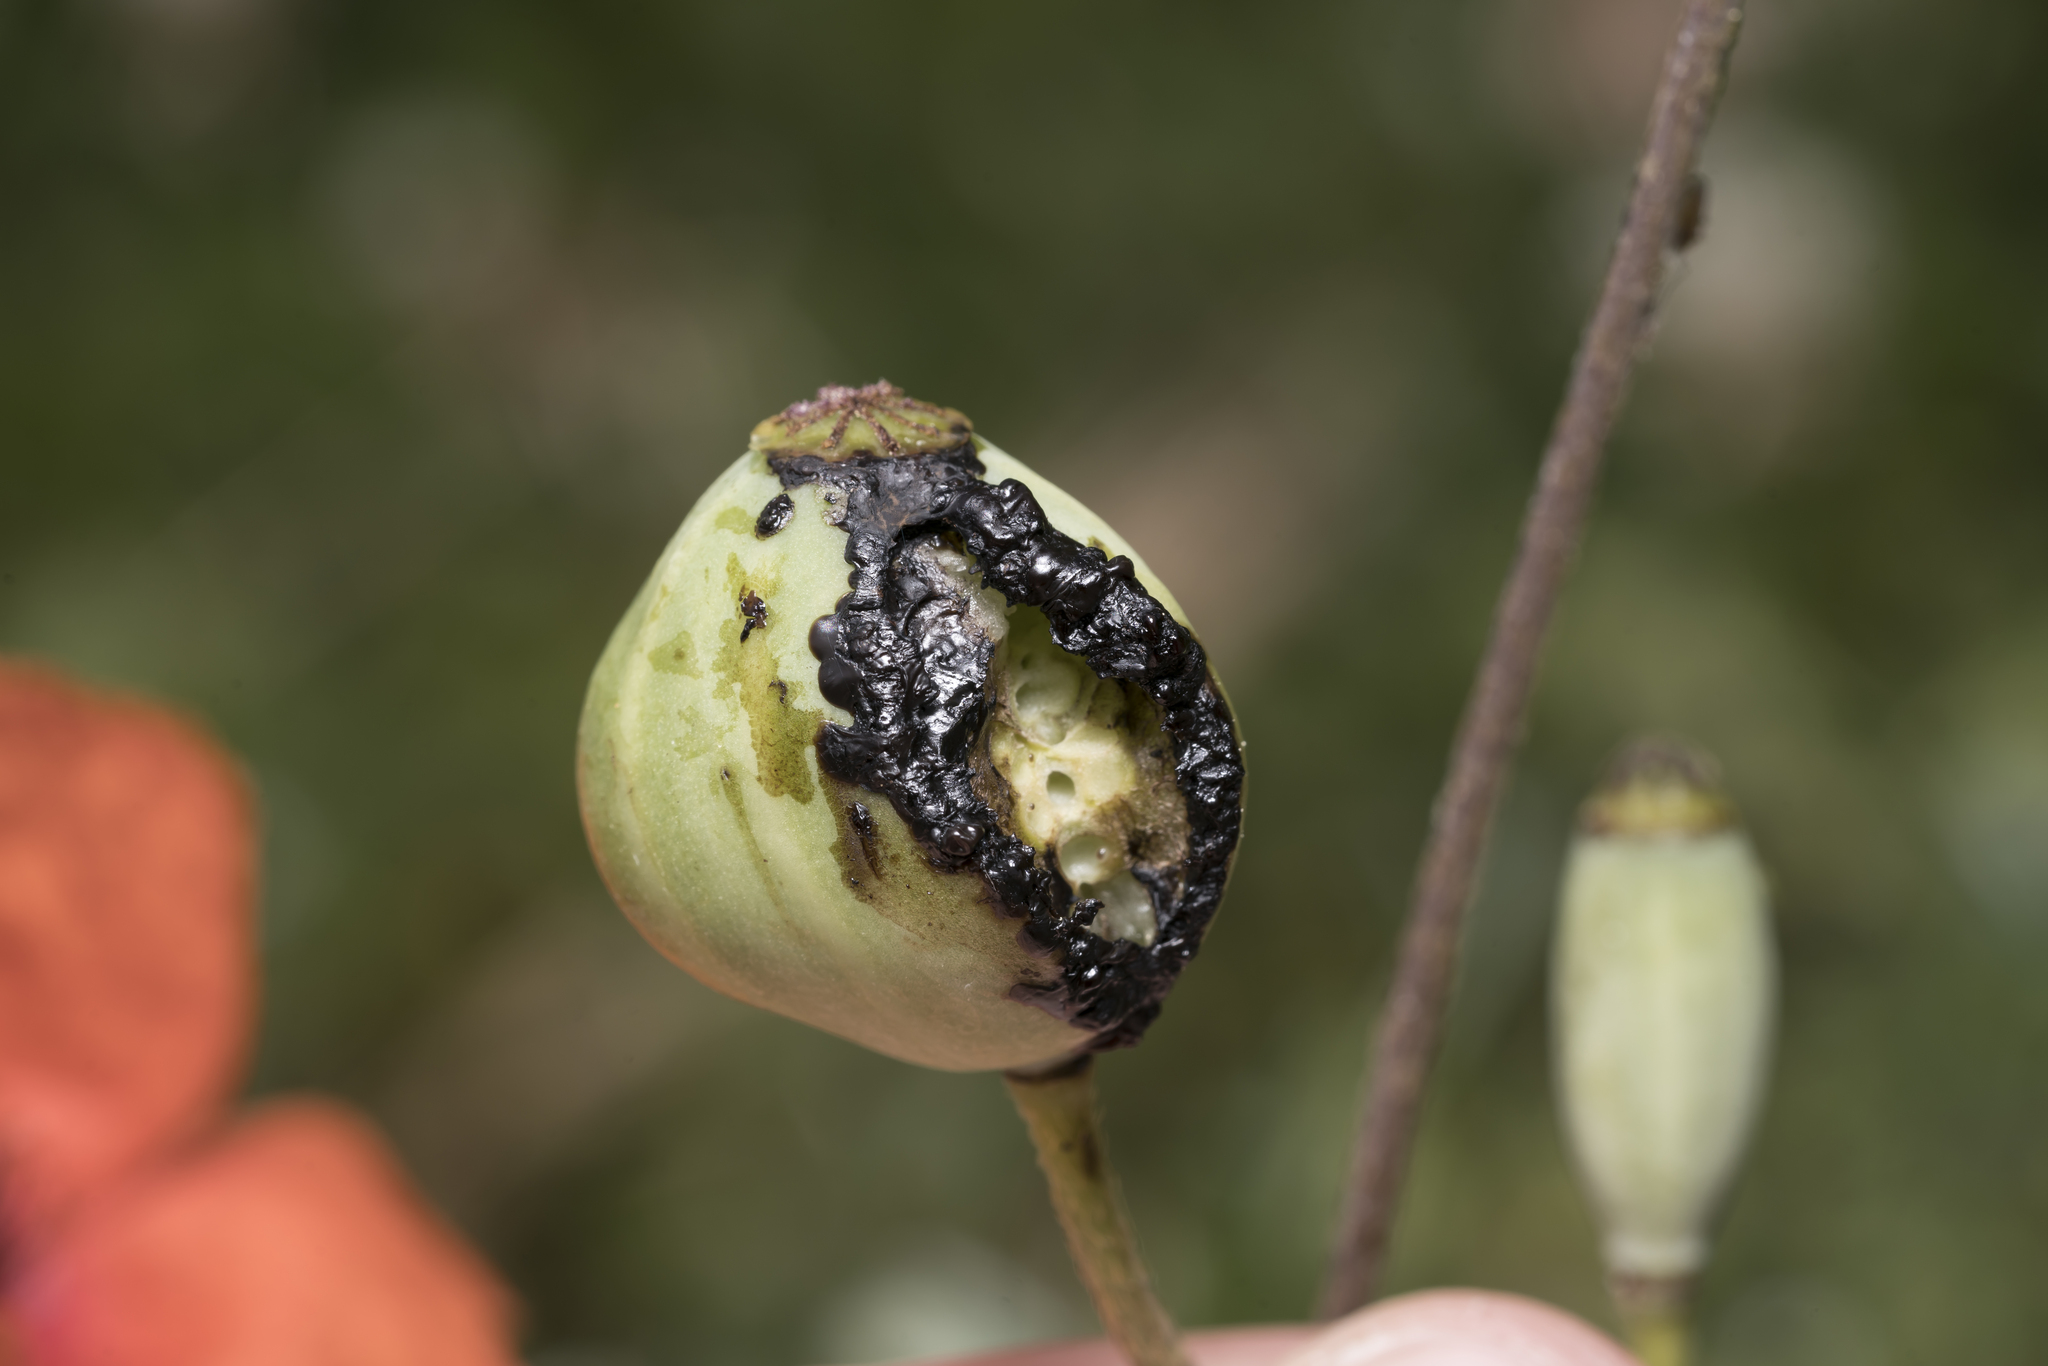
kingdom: Animalia
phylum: Arthropoda
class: Insecta
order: Hymenoptera
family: Cynipidae
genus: Aylax
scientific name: Aylax papaveris
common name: Gall wasp
